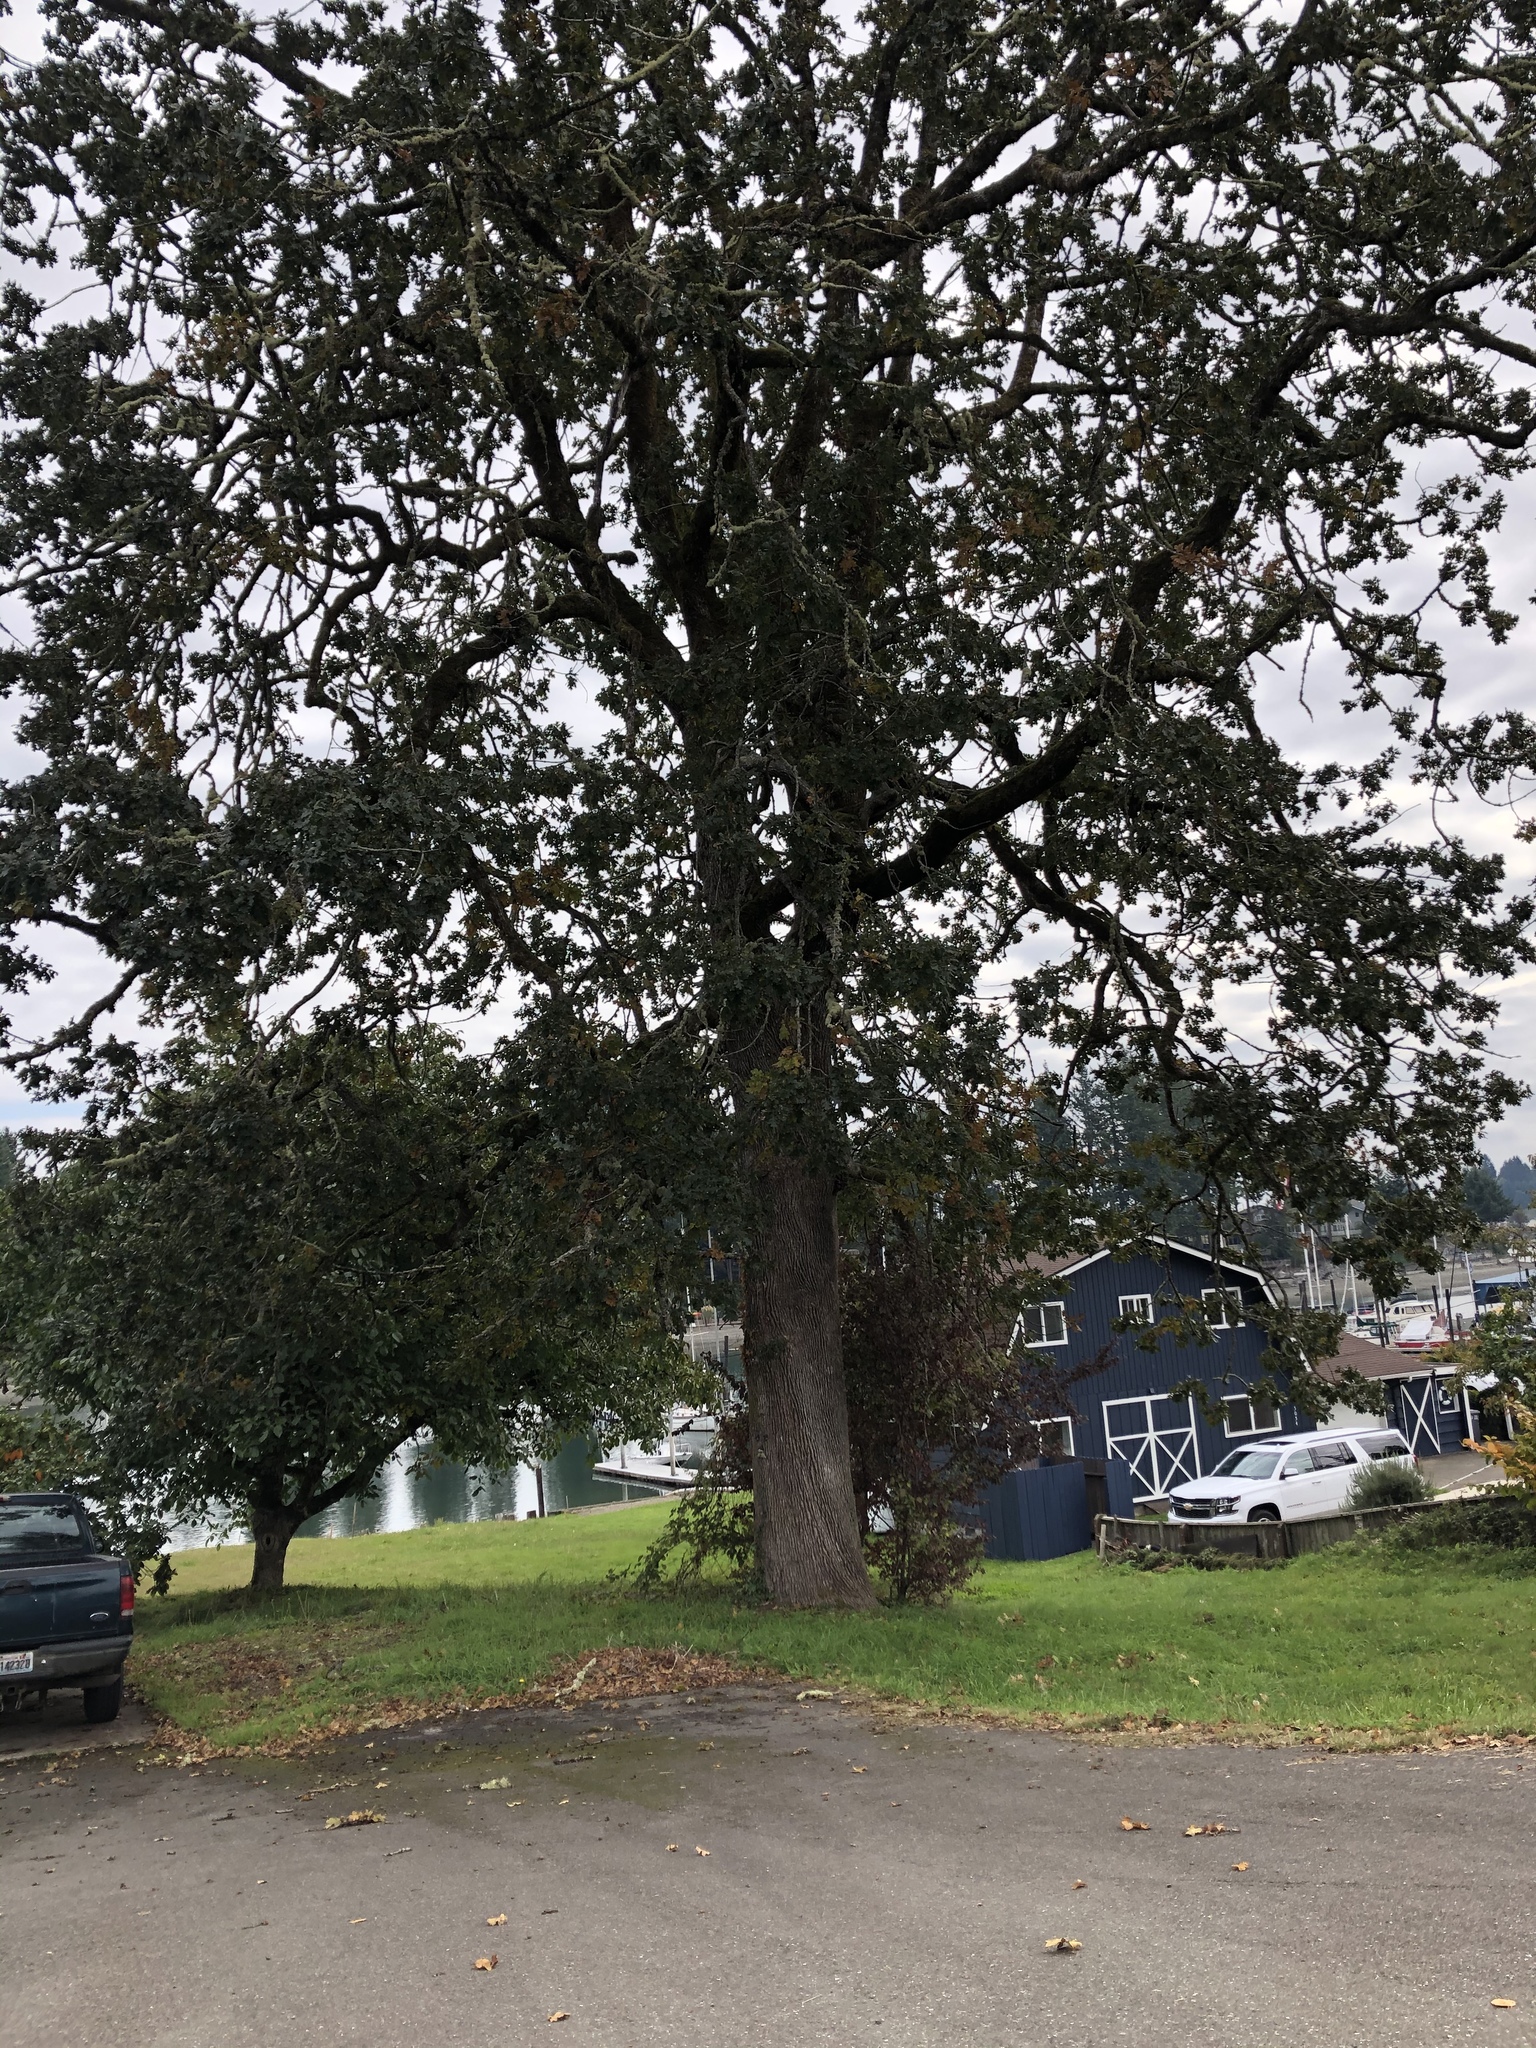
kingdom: Plantae
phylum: Tracheophyta
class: Magnoliopsida
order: Fagales
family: Fagaceae
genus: Quercus
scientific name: Quercus garryana
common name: Garry oak
